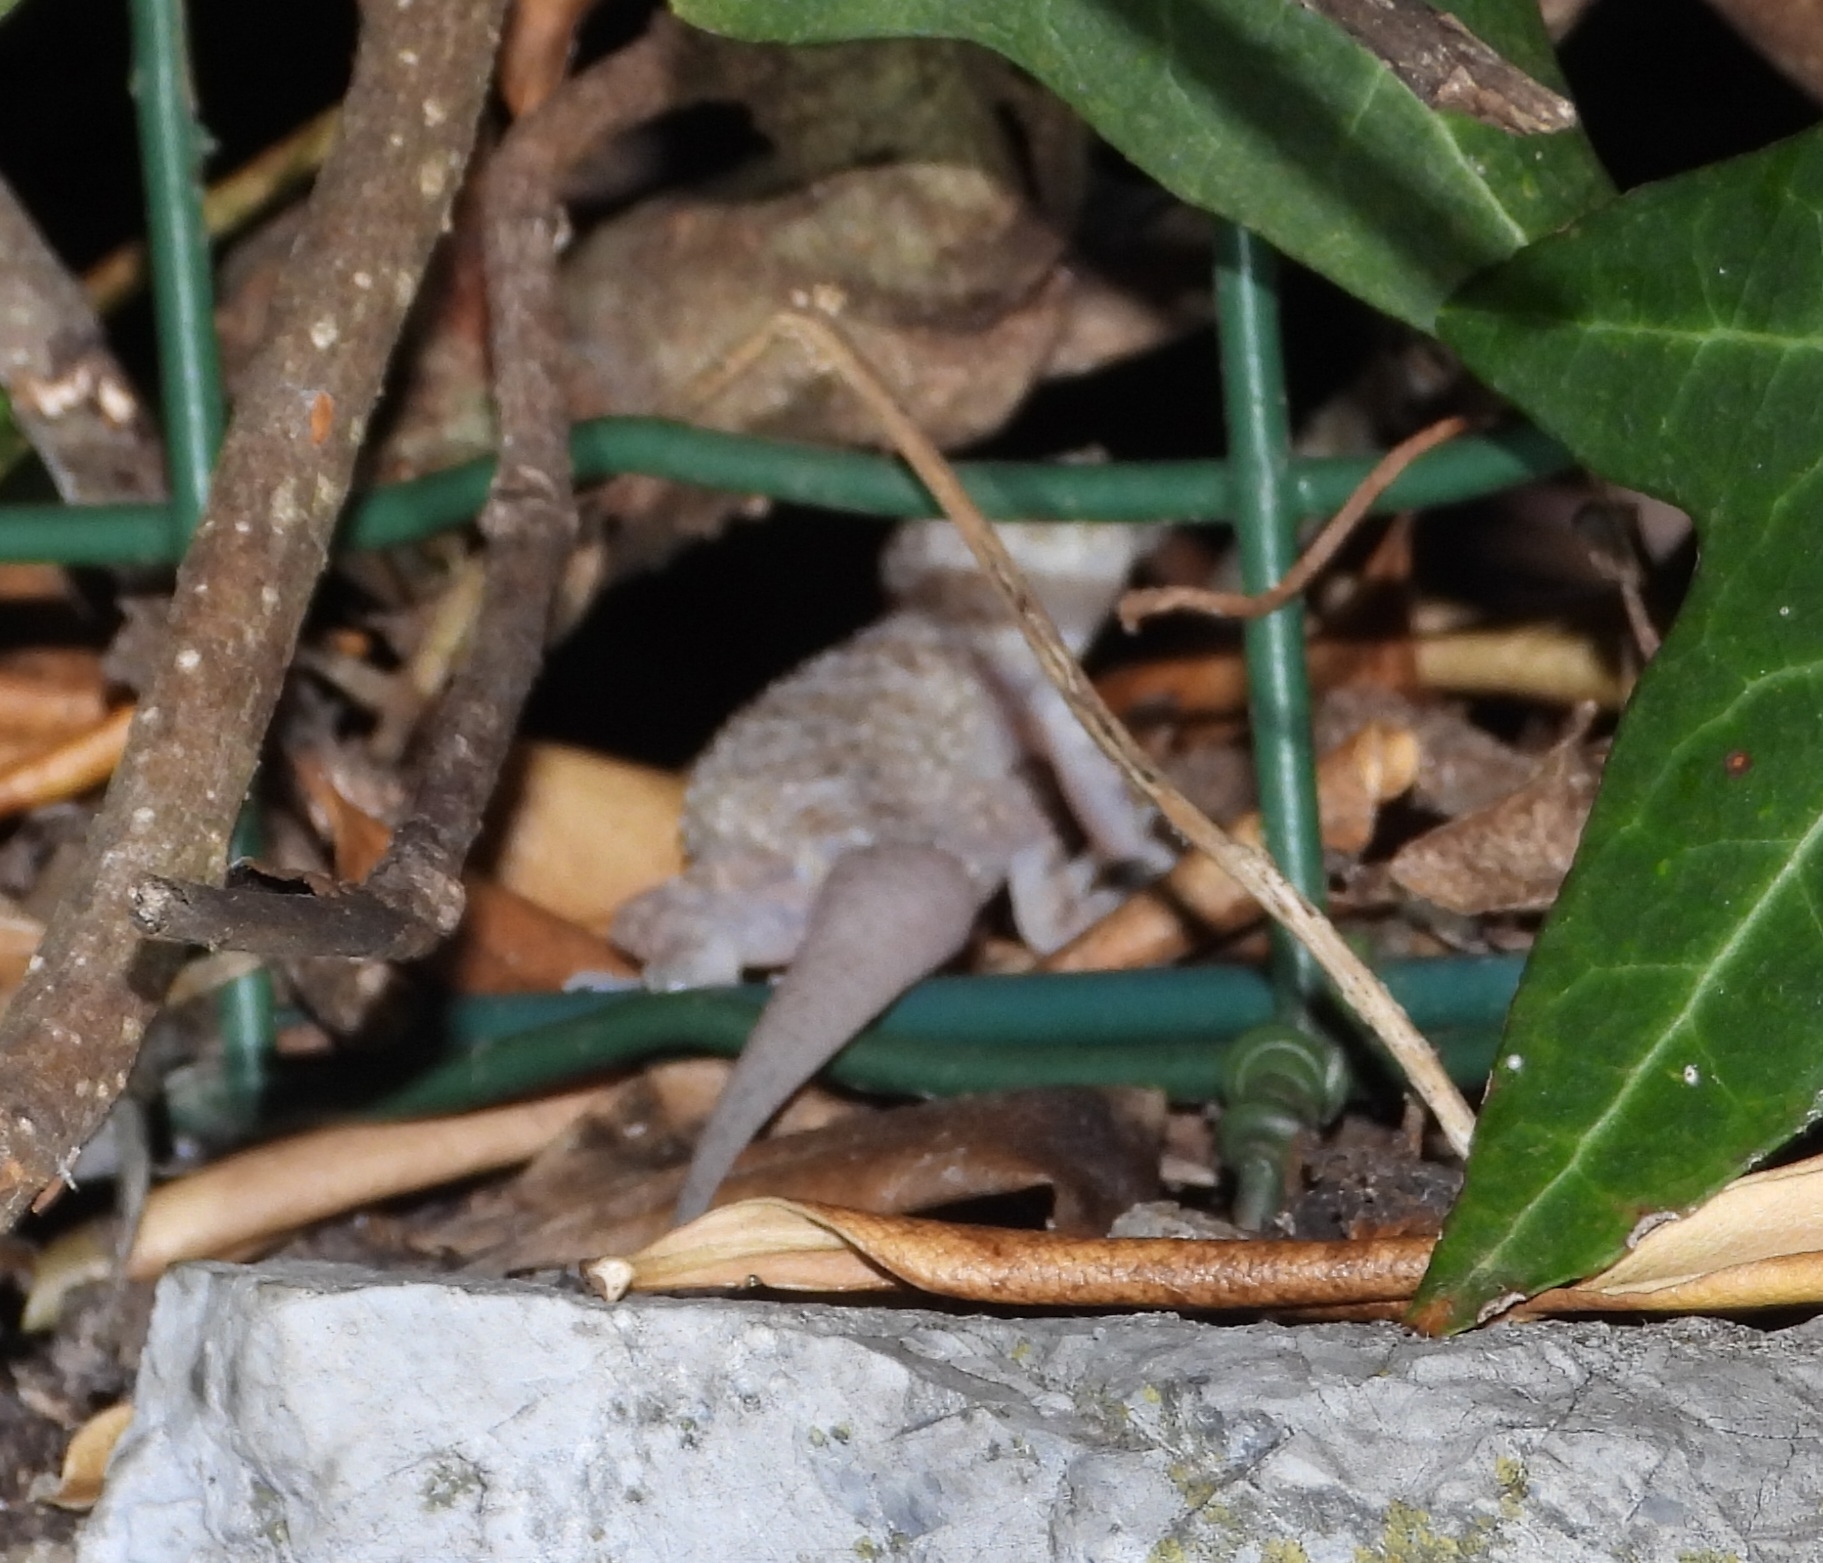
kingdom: Animalia
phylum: Chordata
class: Squamata
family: Gekkonidae
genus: Hemidactylus
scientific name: Hemidactylus turcicus
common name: Turkish gecko
